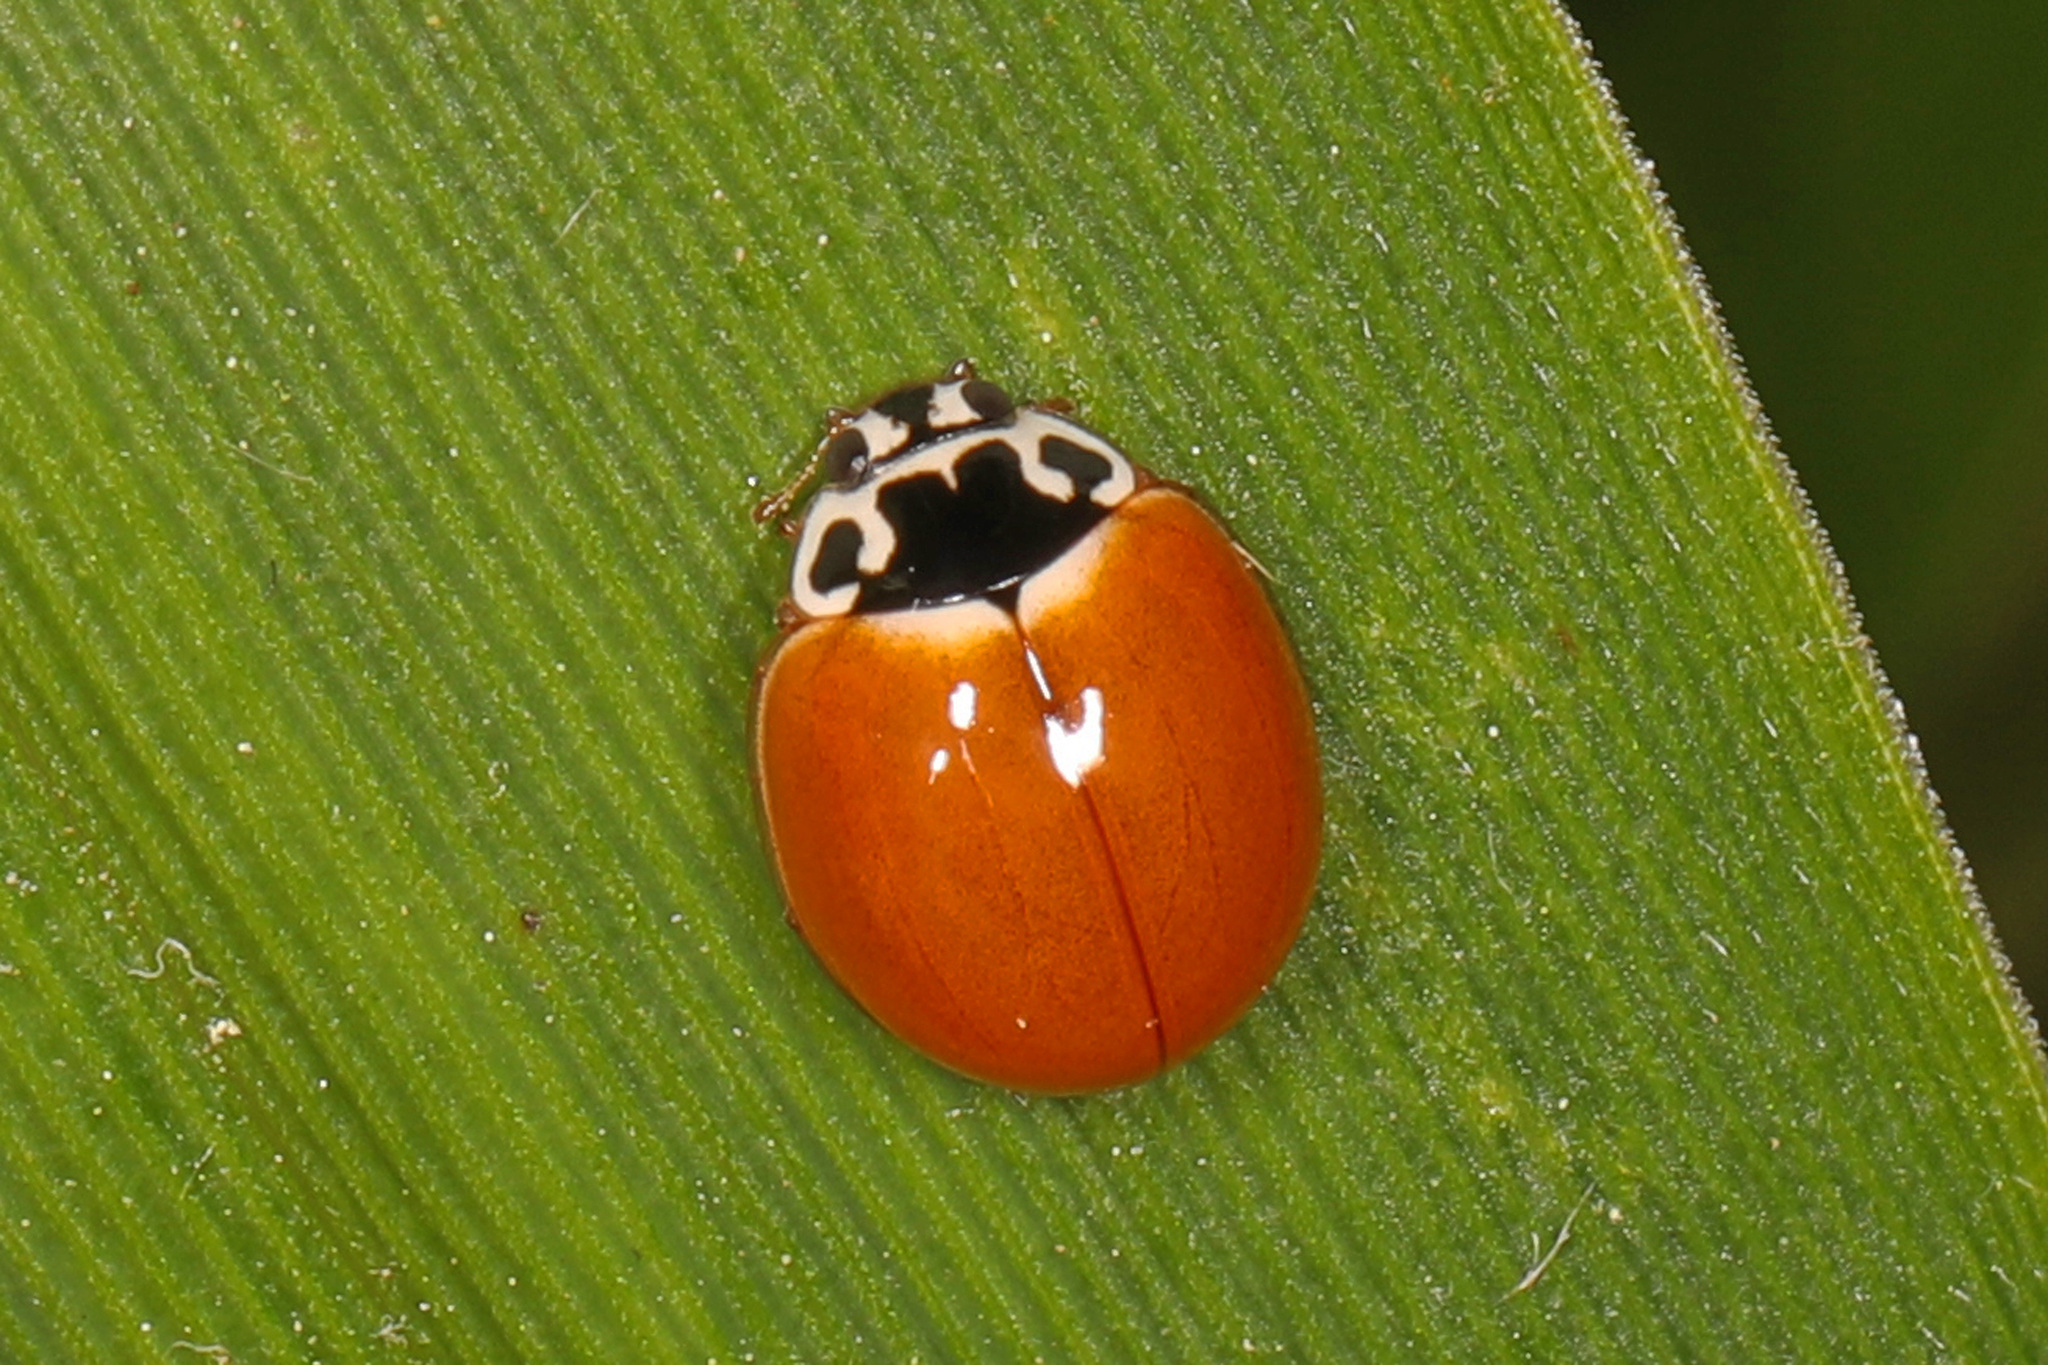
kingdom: Animalia
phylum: Arthropoda
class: Insecta
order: Coleoptera
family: Coccinellidae
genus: Cycloneda
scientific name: Cycloneda munda
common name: Polished lady beetle
